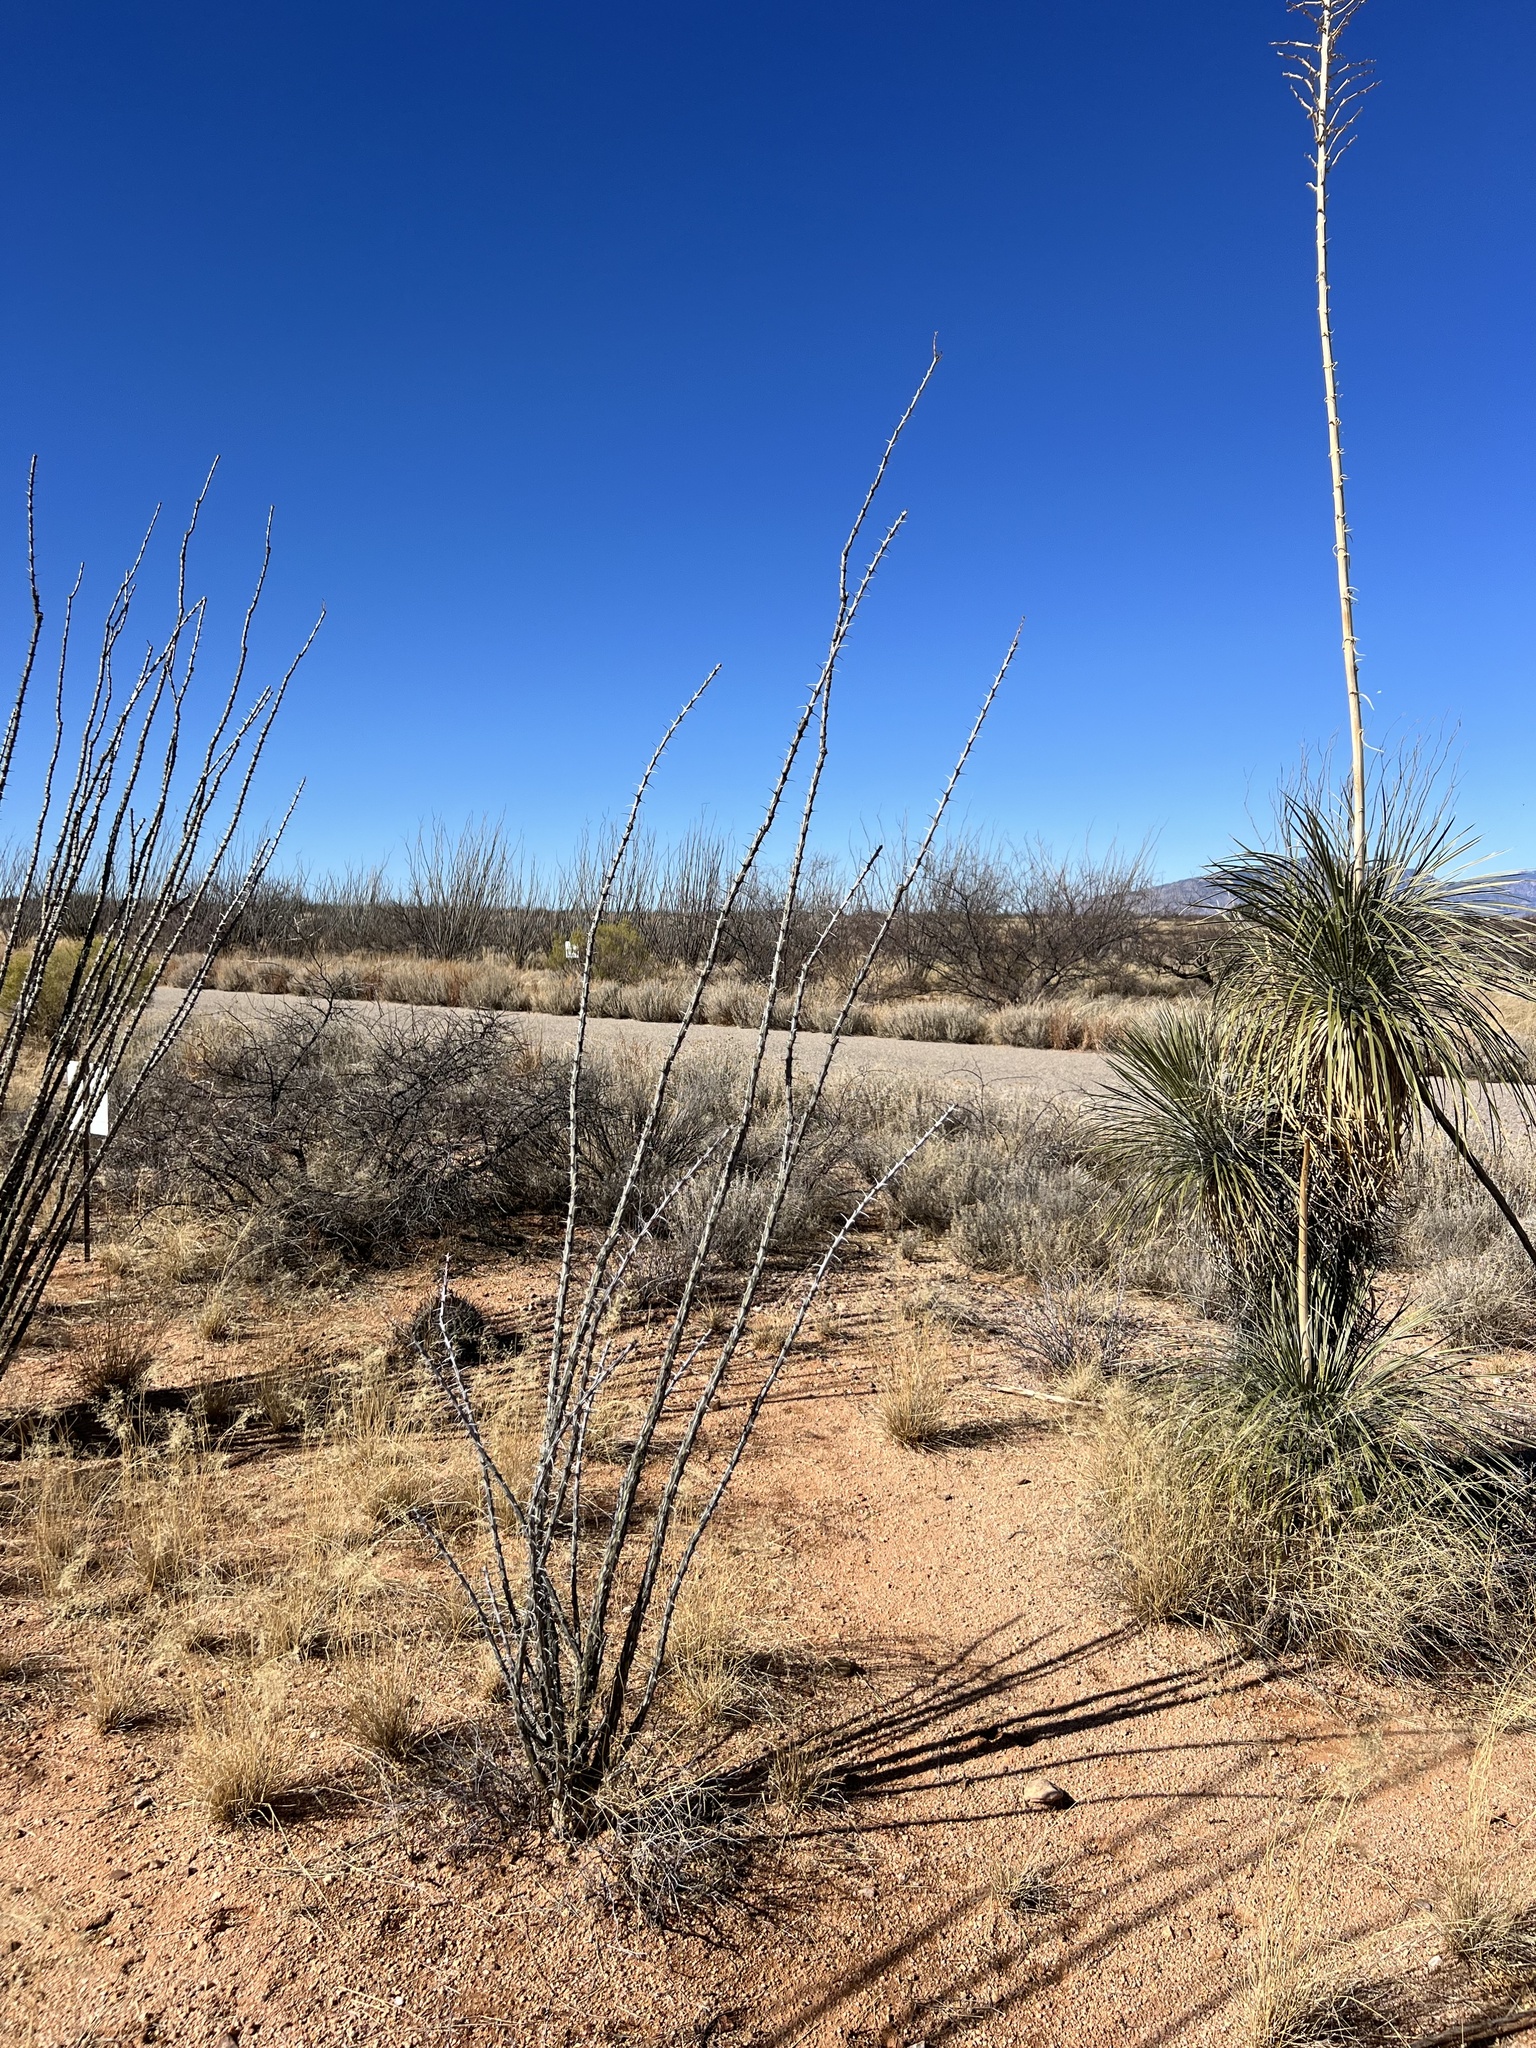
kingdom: Plantae
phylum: Tracheophyta
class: Magnoliopsida
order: Ericales
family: Fouquieriaceae
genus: Fouquieria
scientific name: Fouquieria splendens
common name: Vine-cactus
